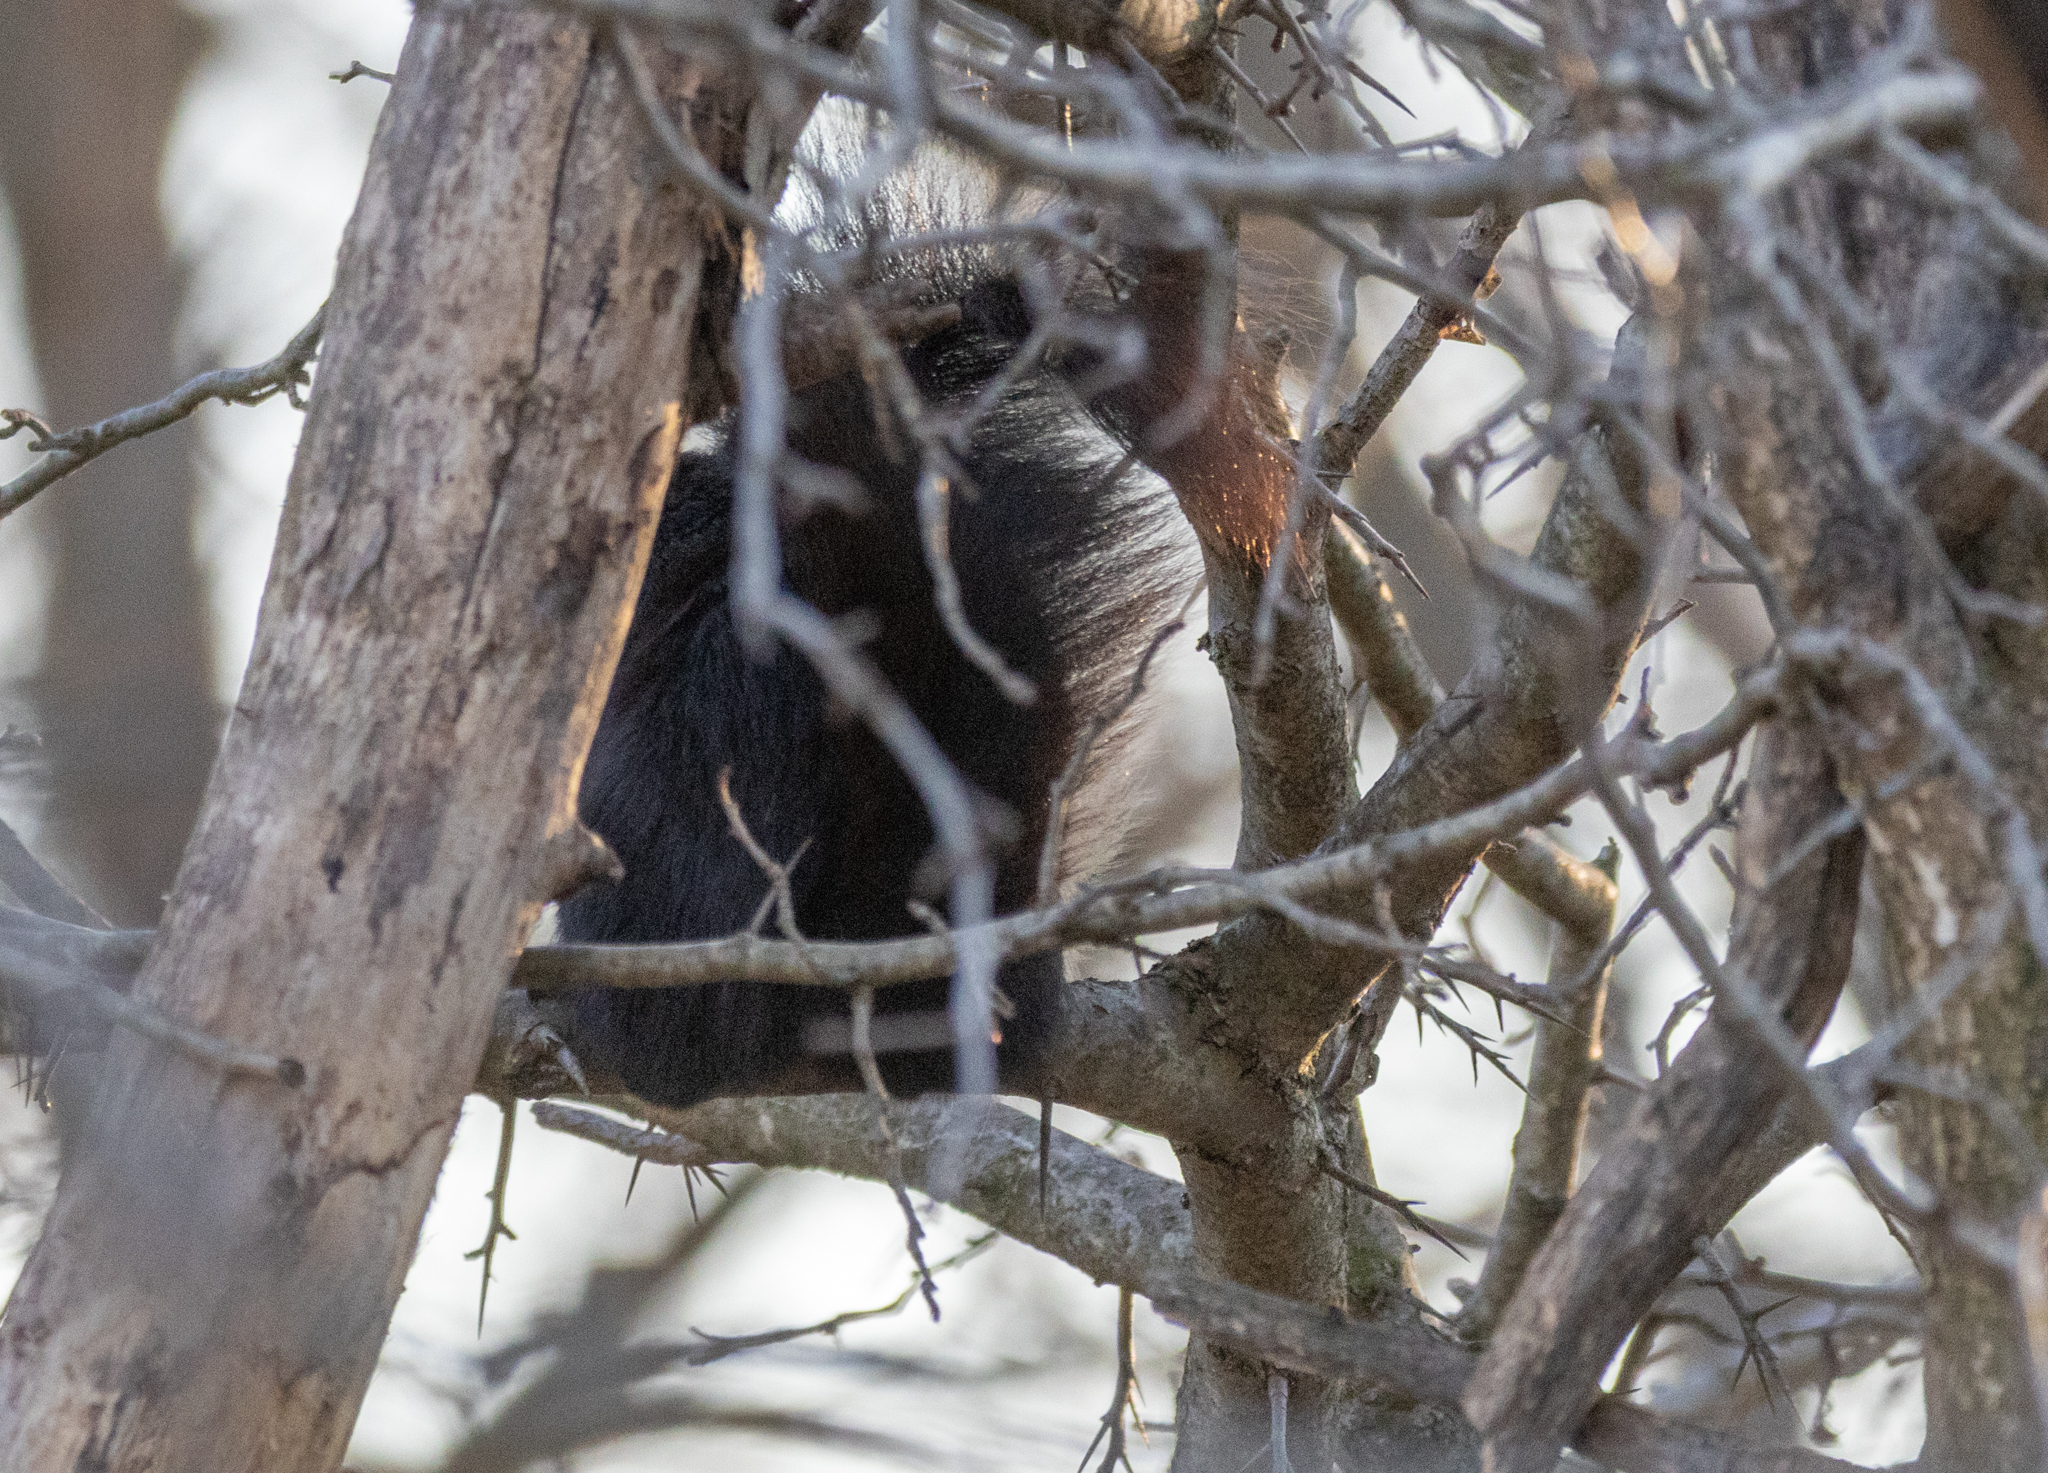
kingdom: Animalia
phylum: Chordata
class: Mammalia
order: Rodentia
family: Sciuridae
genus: Sciurus
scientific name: Sciurus carolinensis
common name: Eastern gray squirrel
